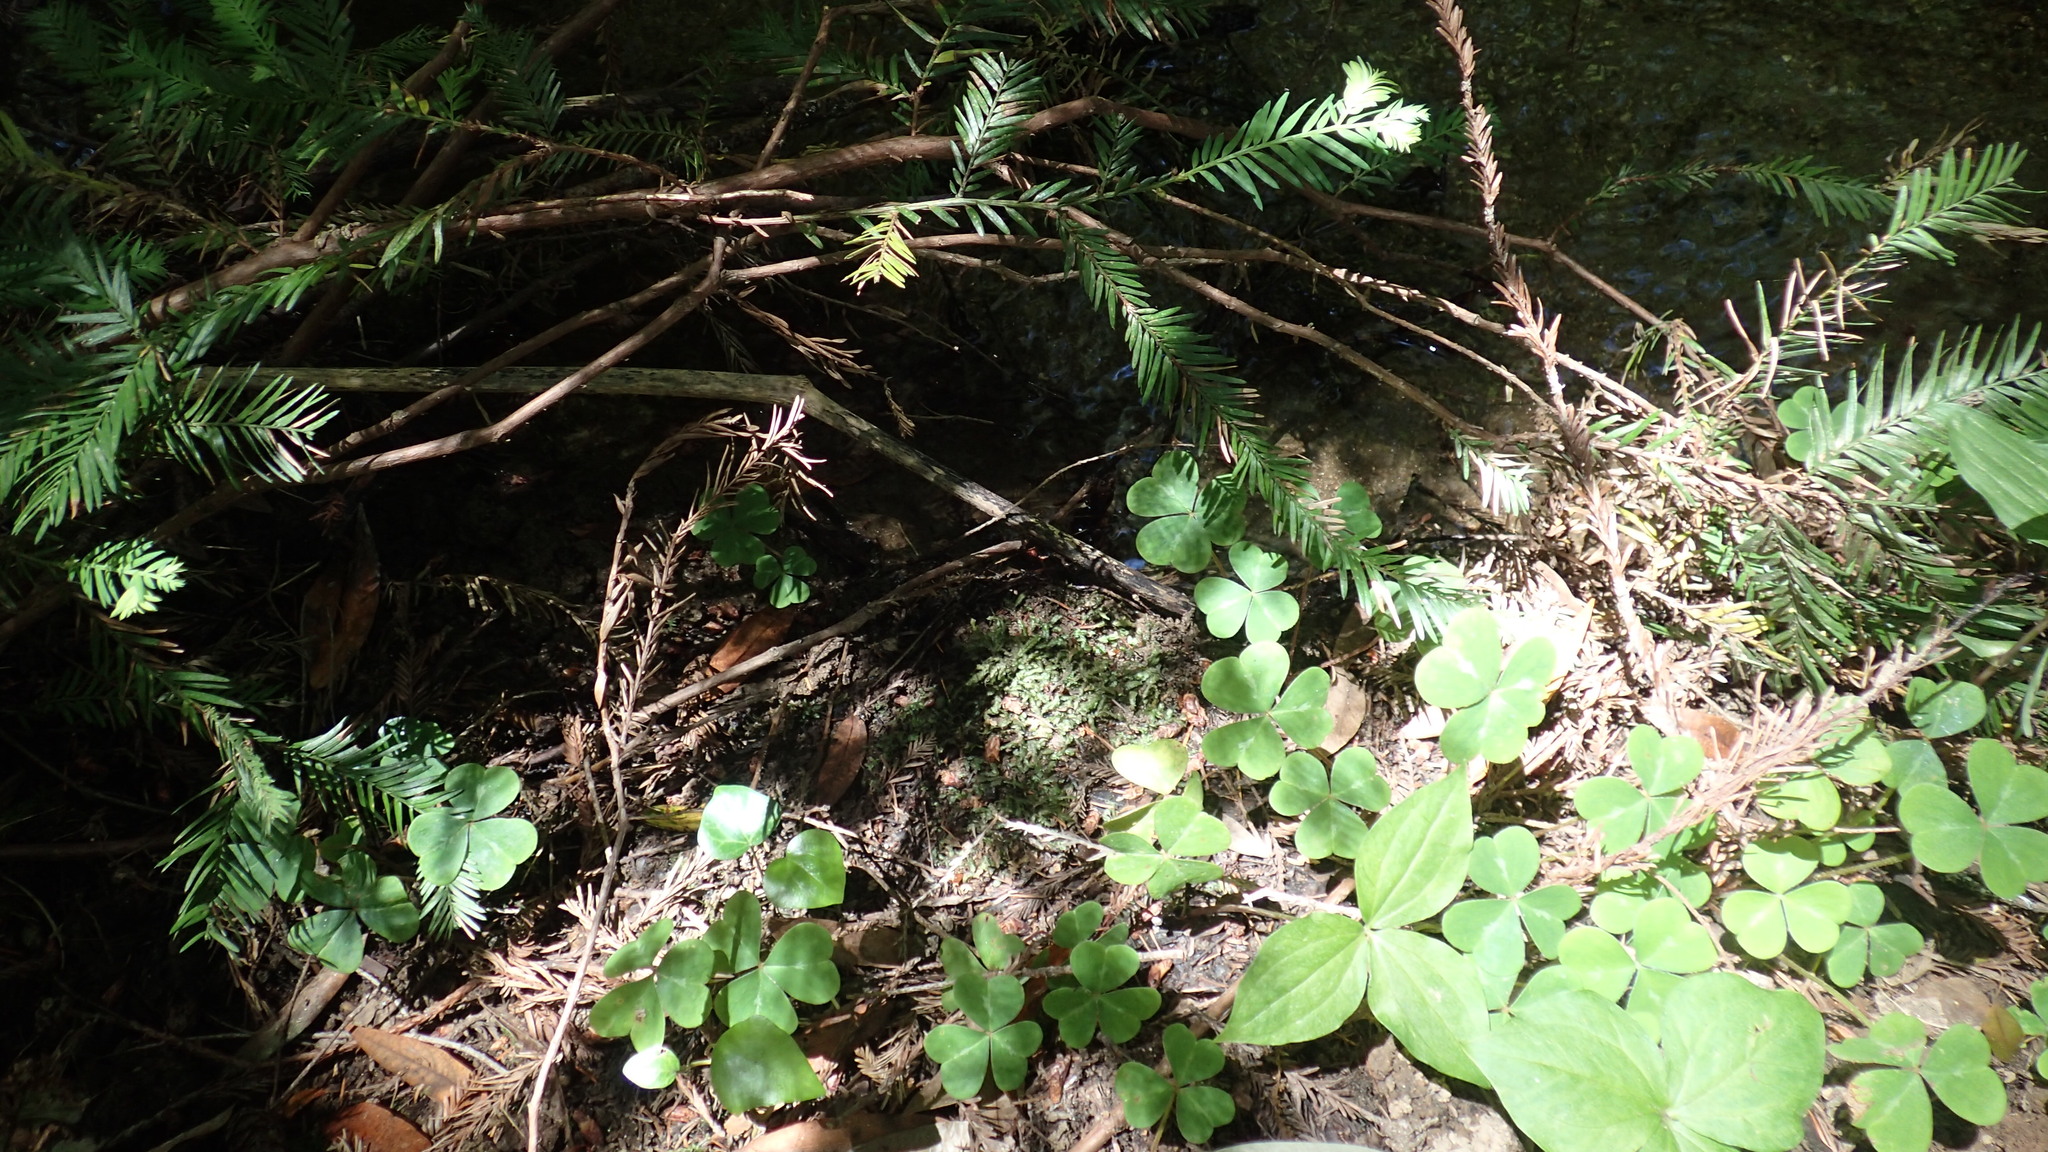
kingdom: Plantae
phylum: Bryophyta
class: Bryopsida
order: Hypnales
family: Neckeraceae
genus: Dannorrisia
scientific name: Dannorrisia bigelovii
